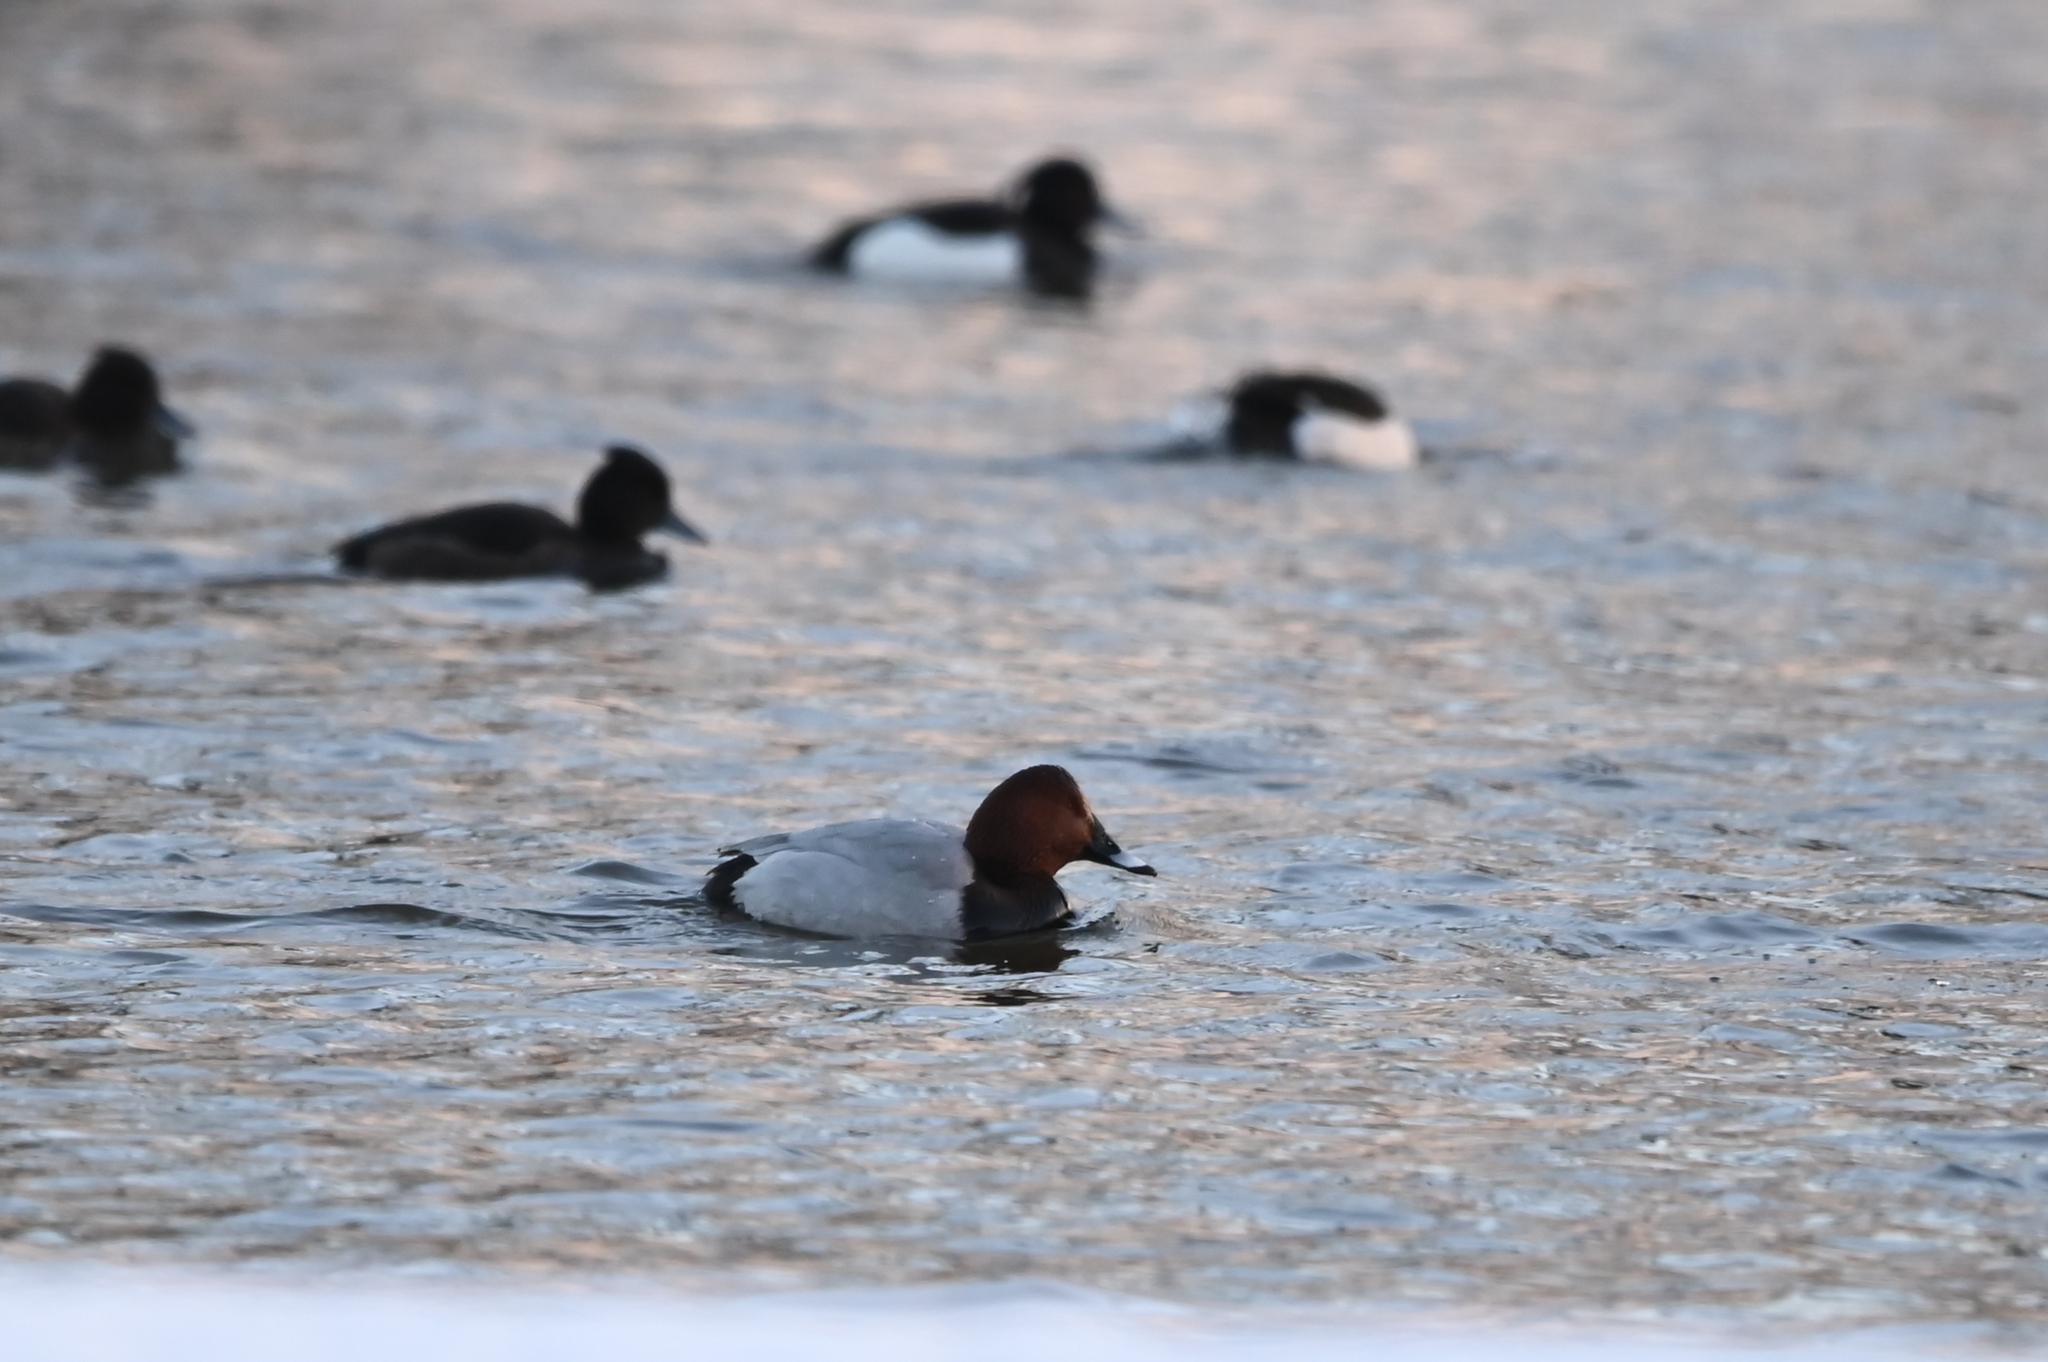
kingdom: Animalia
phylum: Chordata
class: Aves
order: Anseriformes
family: Anatidae
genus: Aythya
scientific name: Aythya ferina
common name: Common pochard
